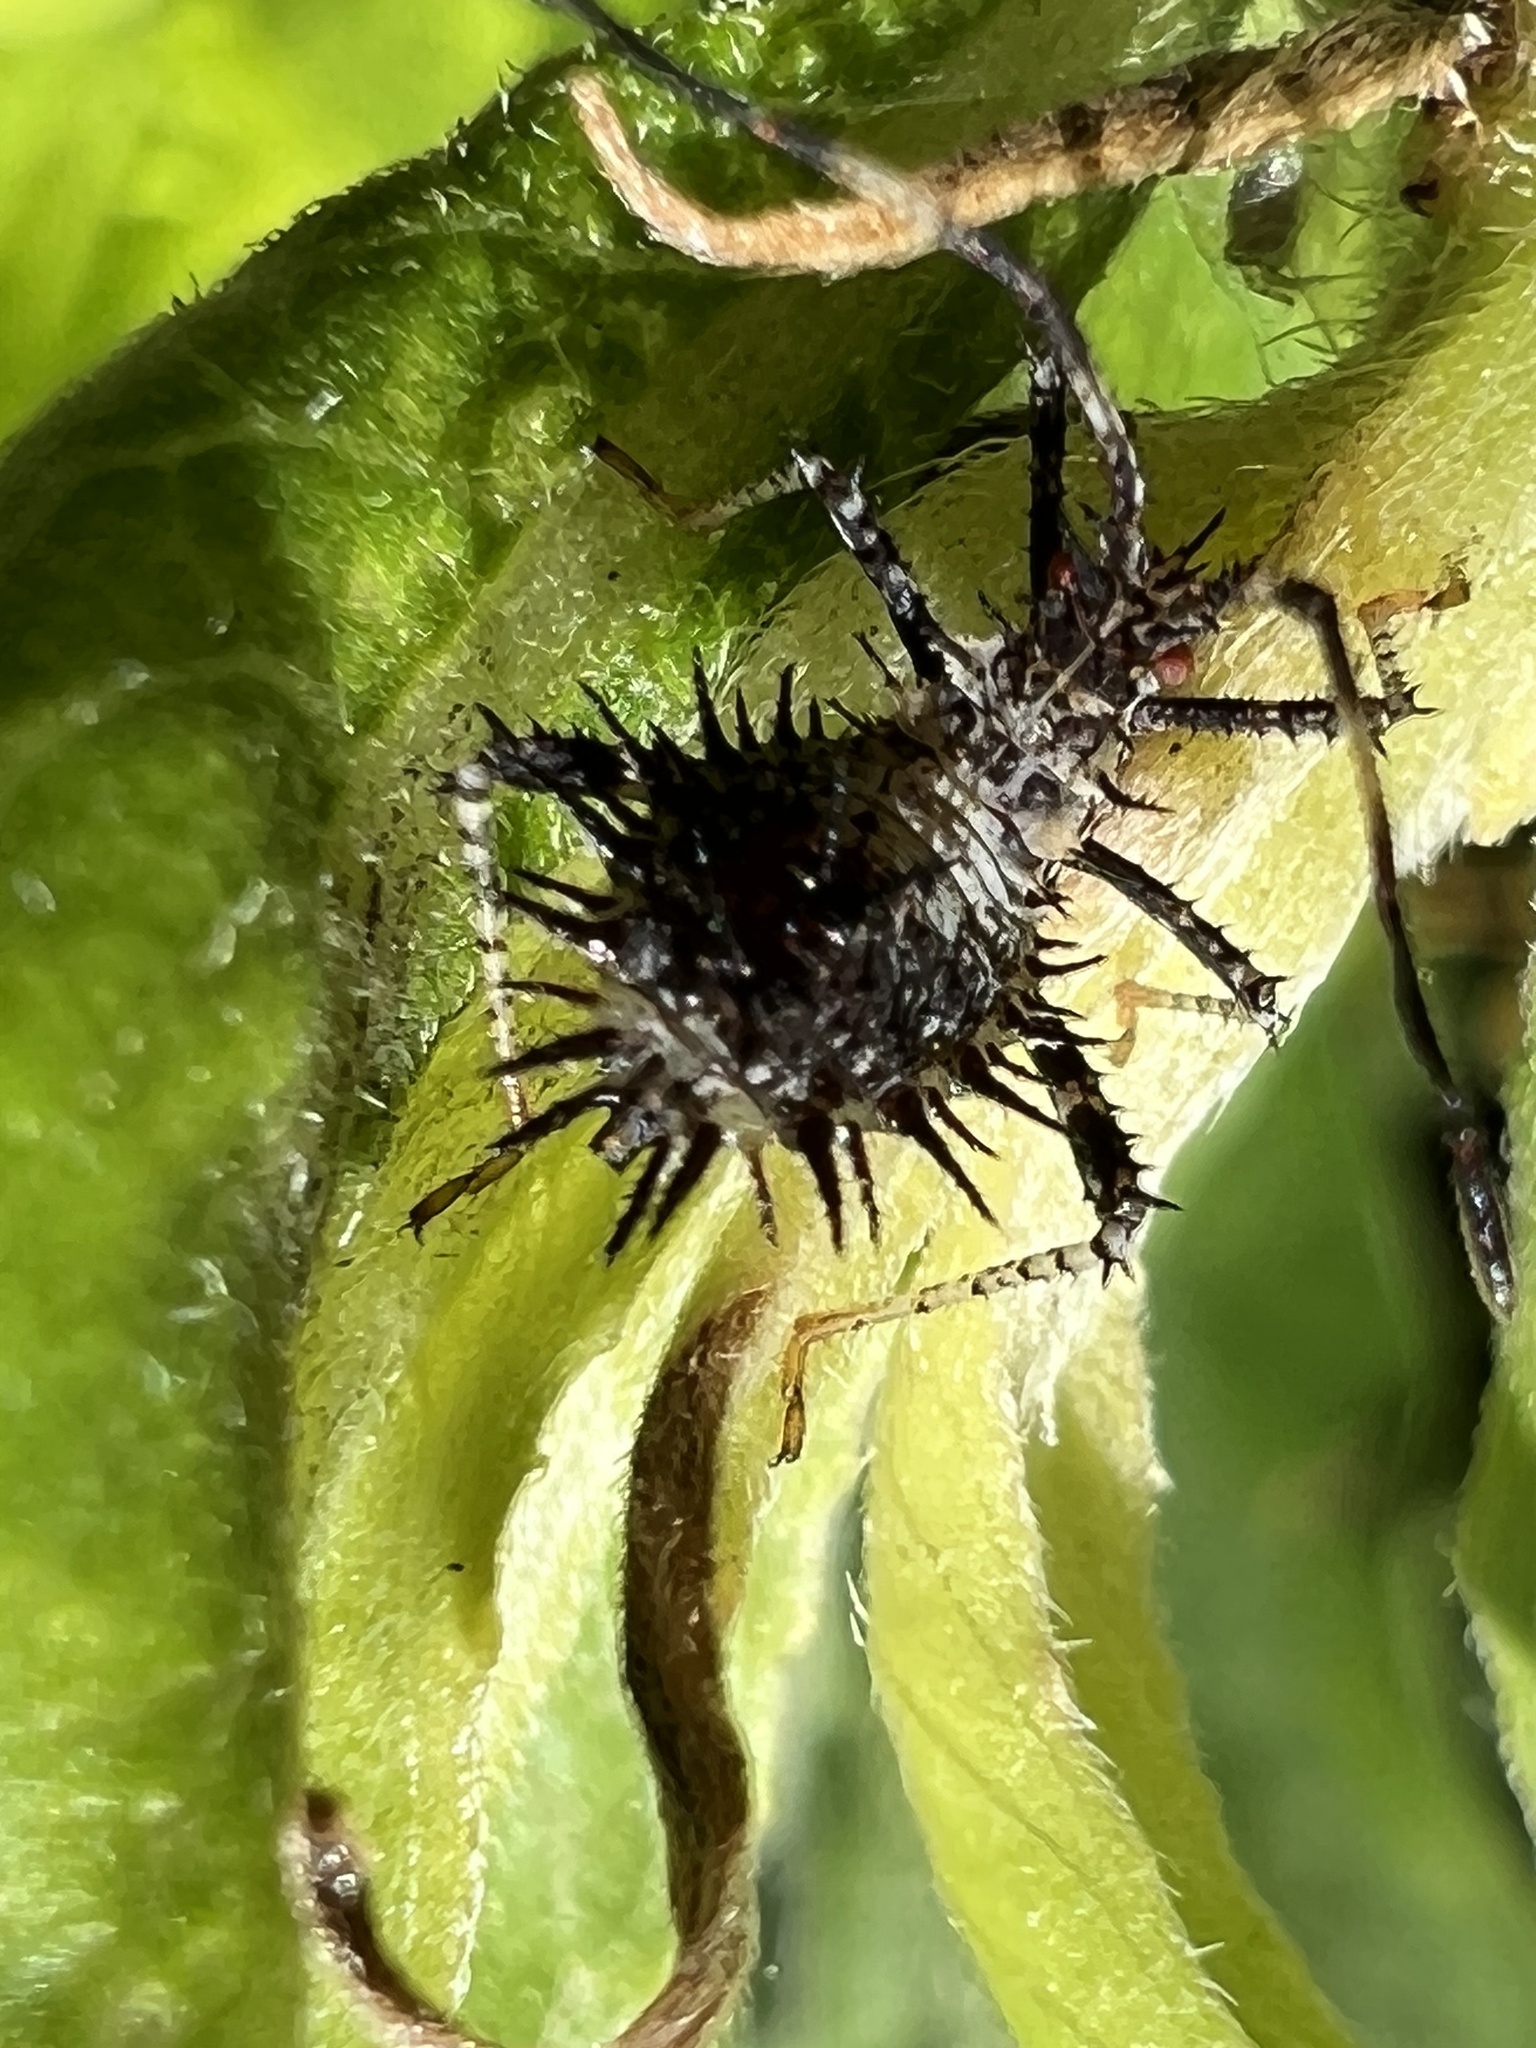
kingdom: Animalia
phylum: Arthropoda
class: Insecta
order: Hemiptera
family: Coreidae
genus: Euthochtha
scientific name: Euthochtha galeator
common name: Helmeted squash bug
